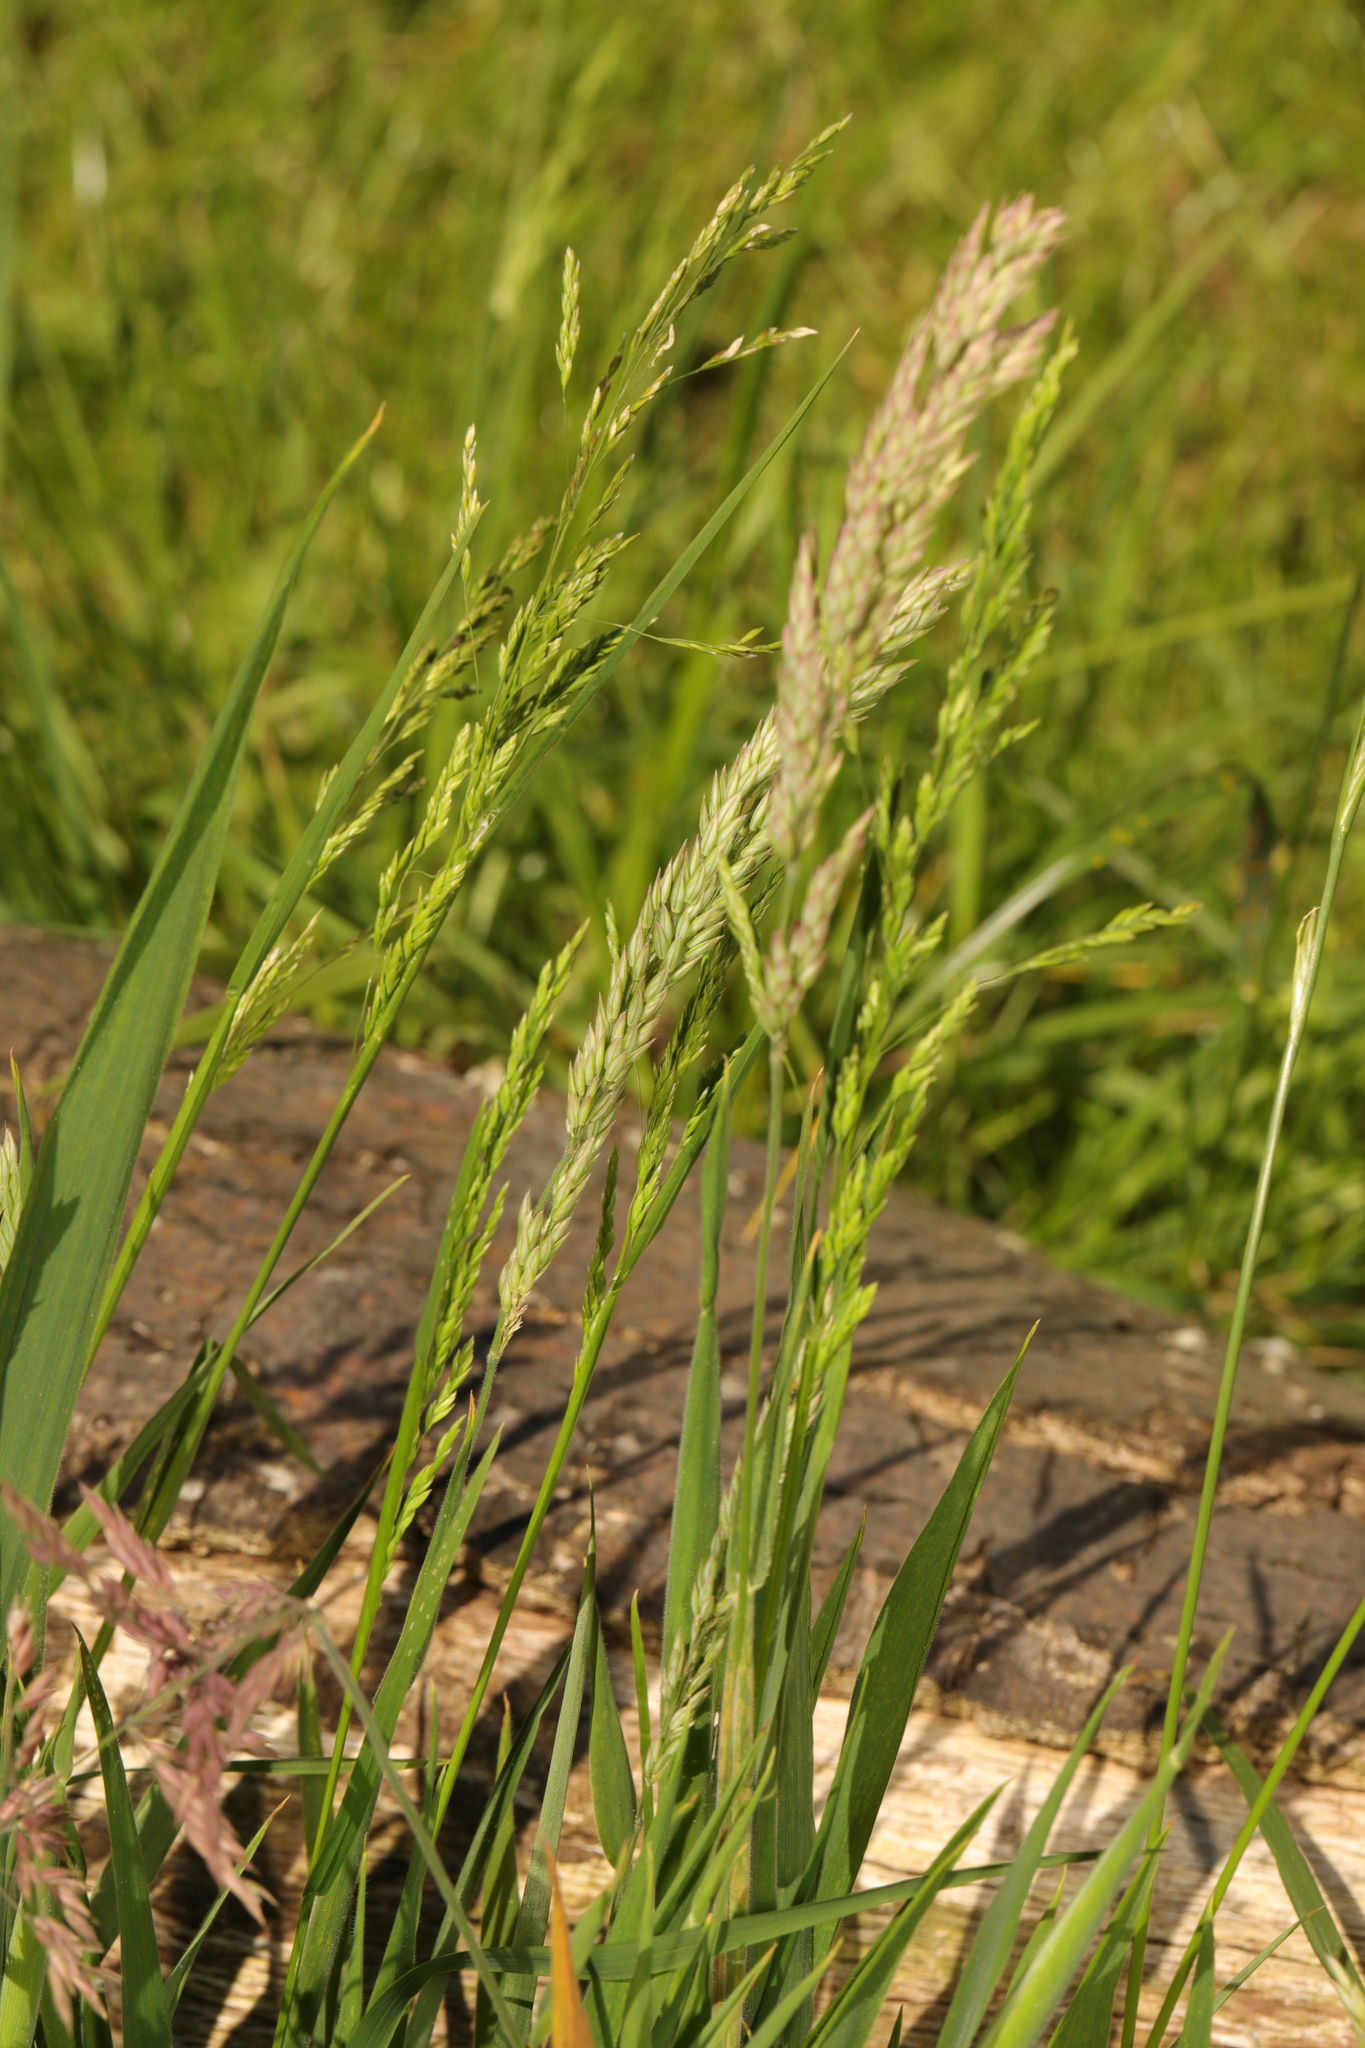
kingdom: Plantae
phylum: Tracheophyta
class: Liliopsida
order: Poales
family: Poaceae
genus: Holcus
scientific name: Holcus lanatus
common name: Yorkshire-fog
